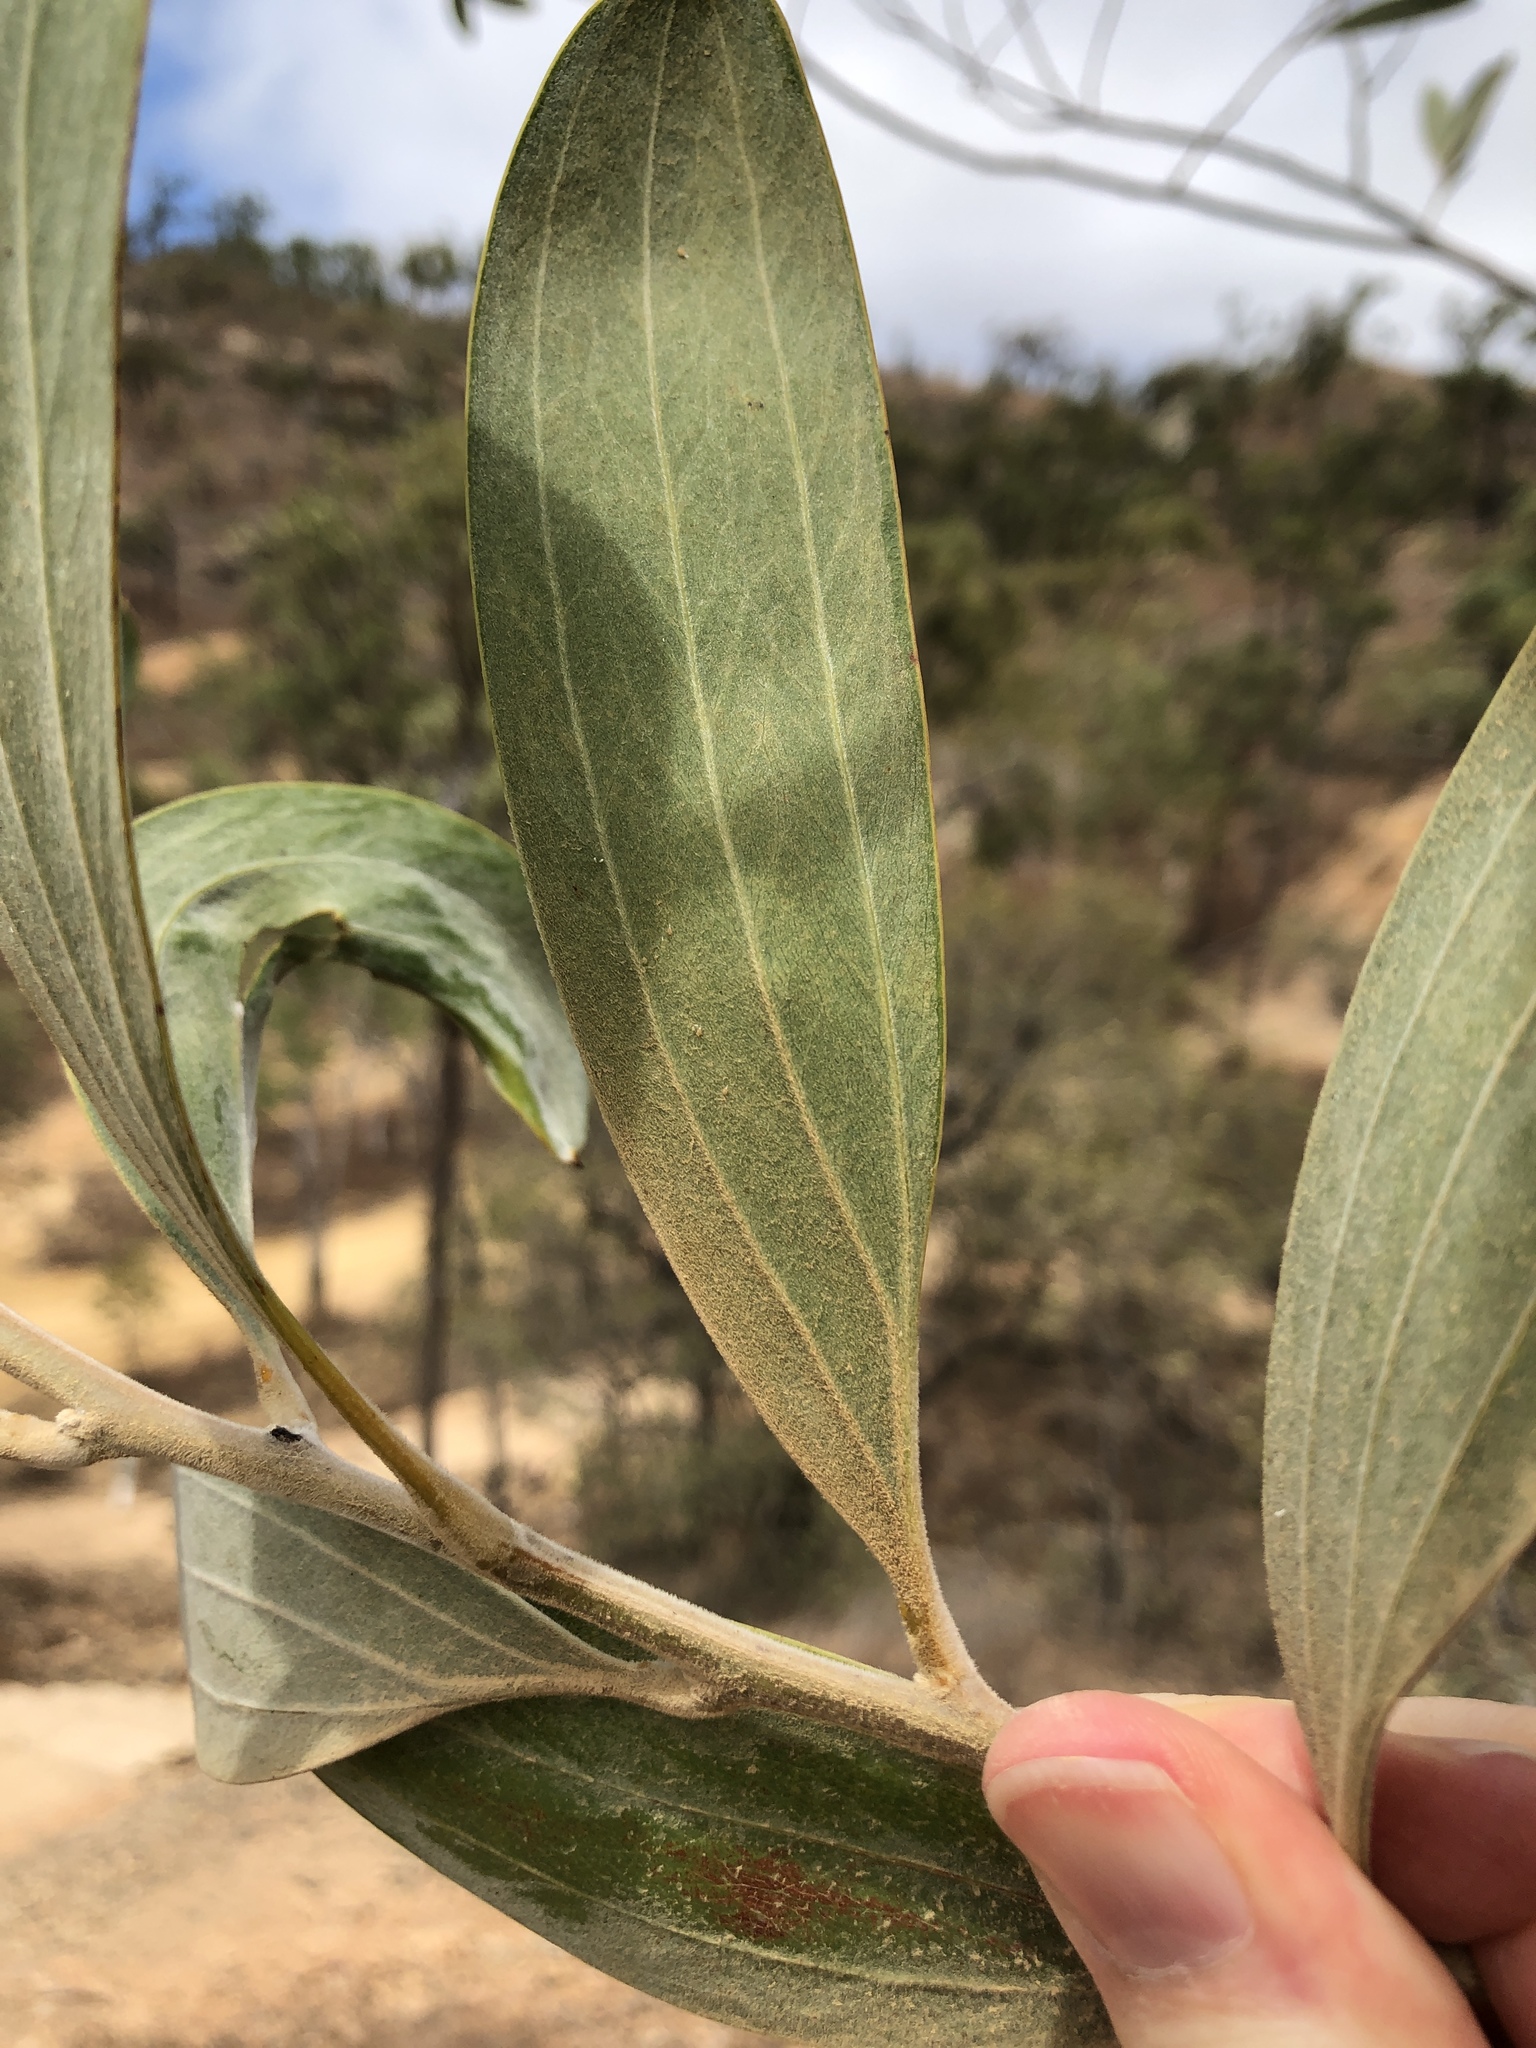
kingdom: Plantae
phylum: Tracheophyta
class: Magnoliopsida
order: Fabales
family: Fabaceae
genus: Acacia
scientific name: Acacia holosericea
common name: Candelabra wattle
